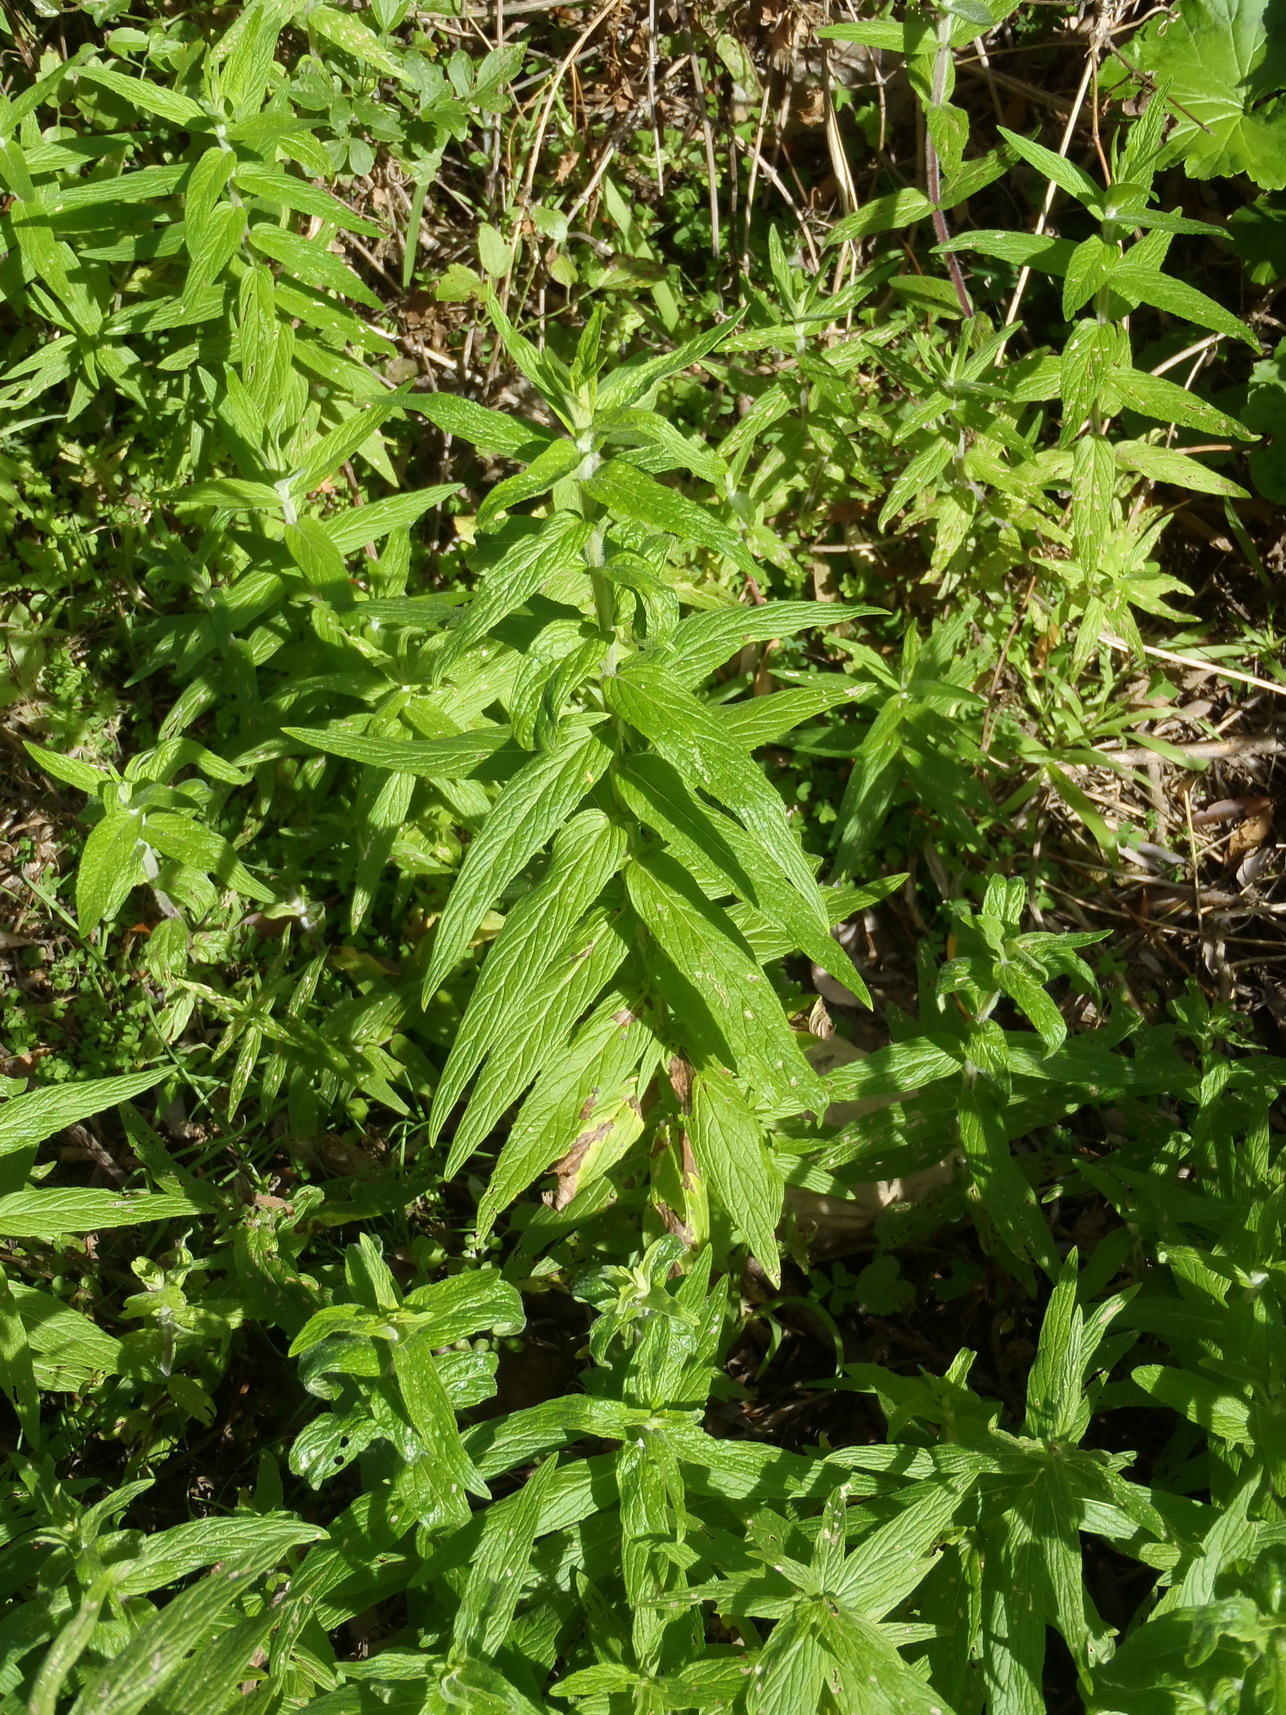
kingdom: Plantae
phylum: Tracheophyta
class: Magnoliopsida
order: Lamiales
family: Lamiaceae
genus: Mentha
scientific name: Mentha longifolia
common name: Horse mint
